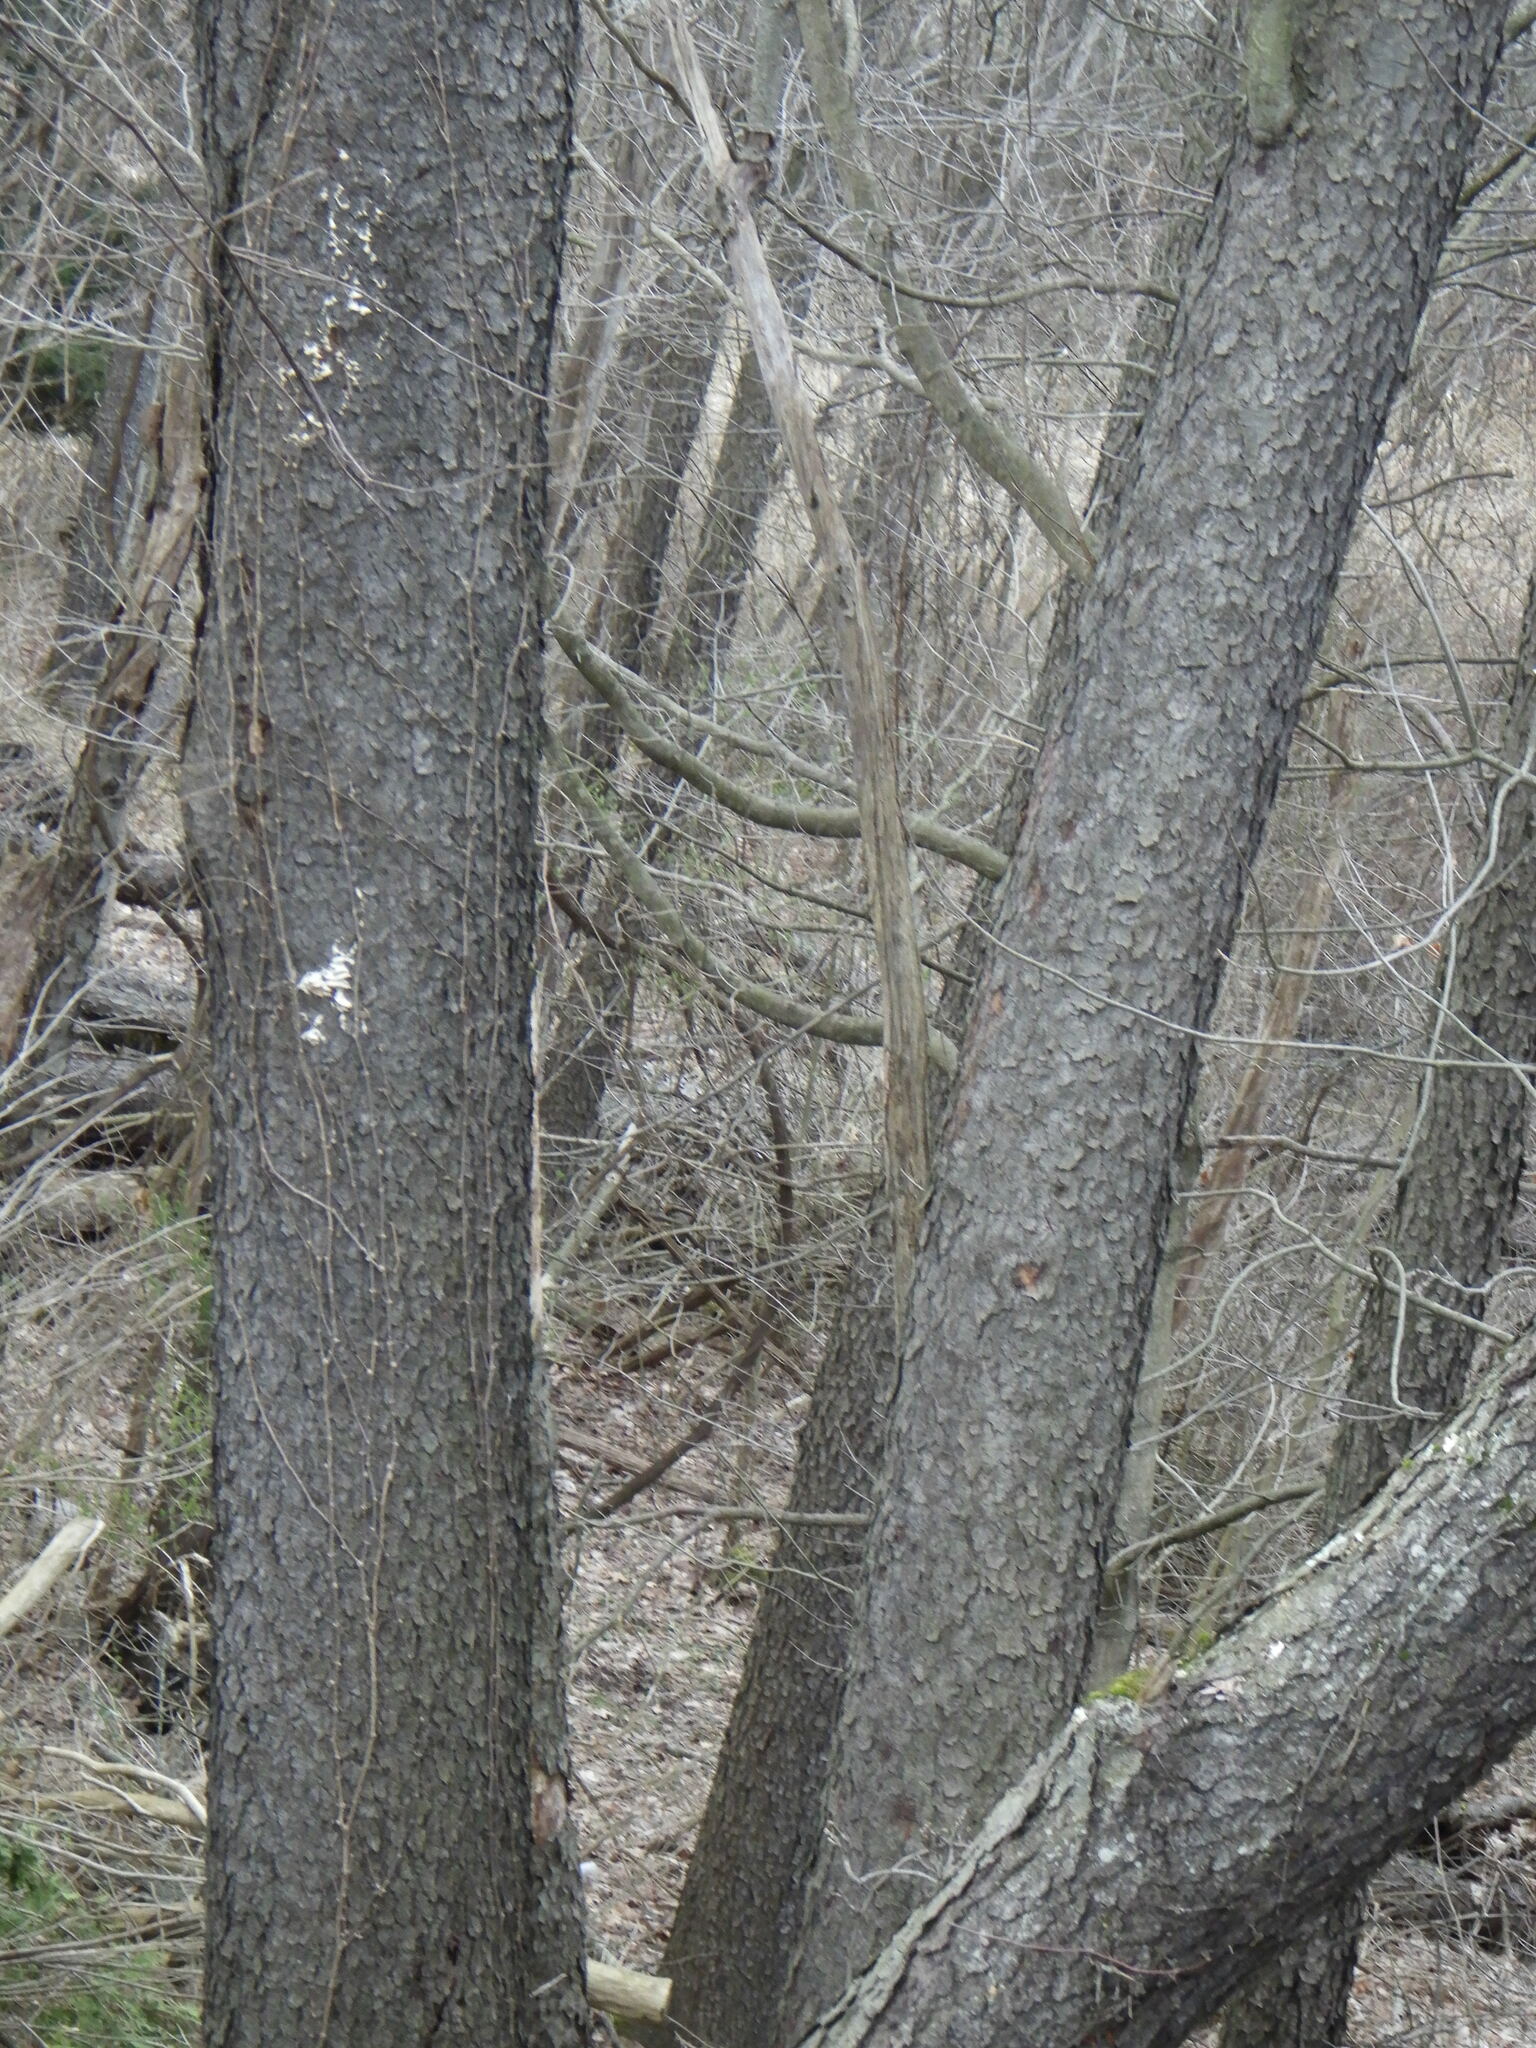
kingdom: Plantae
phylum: Tracheophyta
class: Magnoliopsida
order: Rosales
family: Rosaceae
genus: Prunus
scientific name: Prunus serotina
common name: Black cherry
